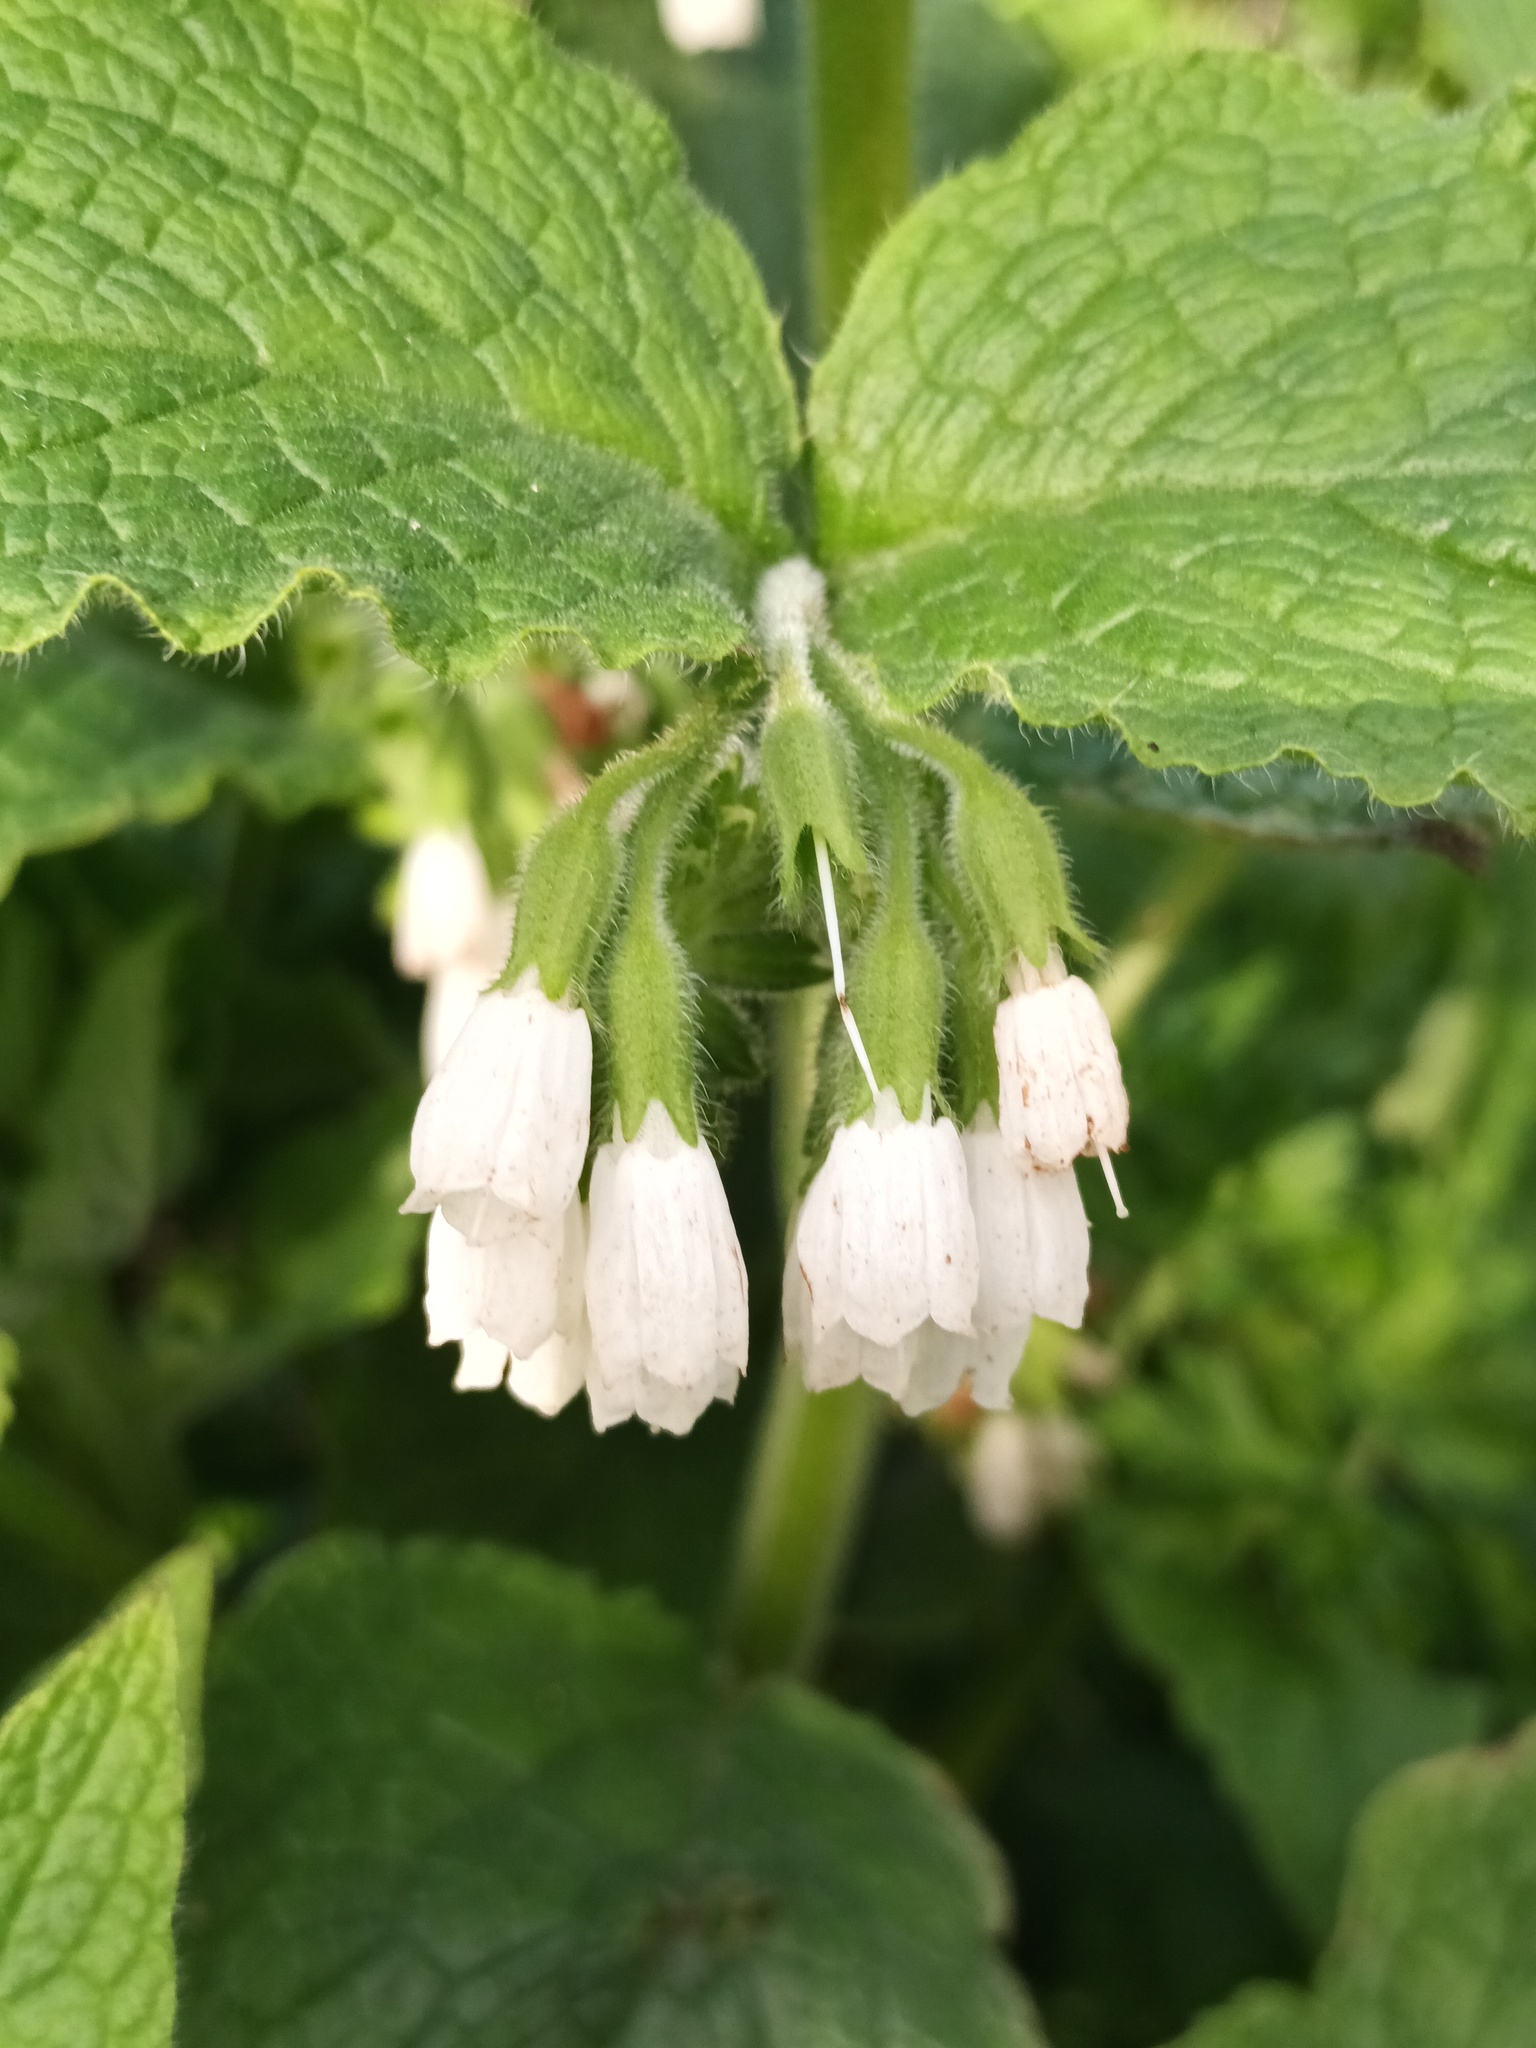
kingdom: Plantae
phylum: Tracheophyta
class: Magnoliopsida
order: Boraginales
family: Boraginaceae
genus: Symphytum
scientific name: Symphytum orientale
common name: White comfrey
